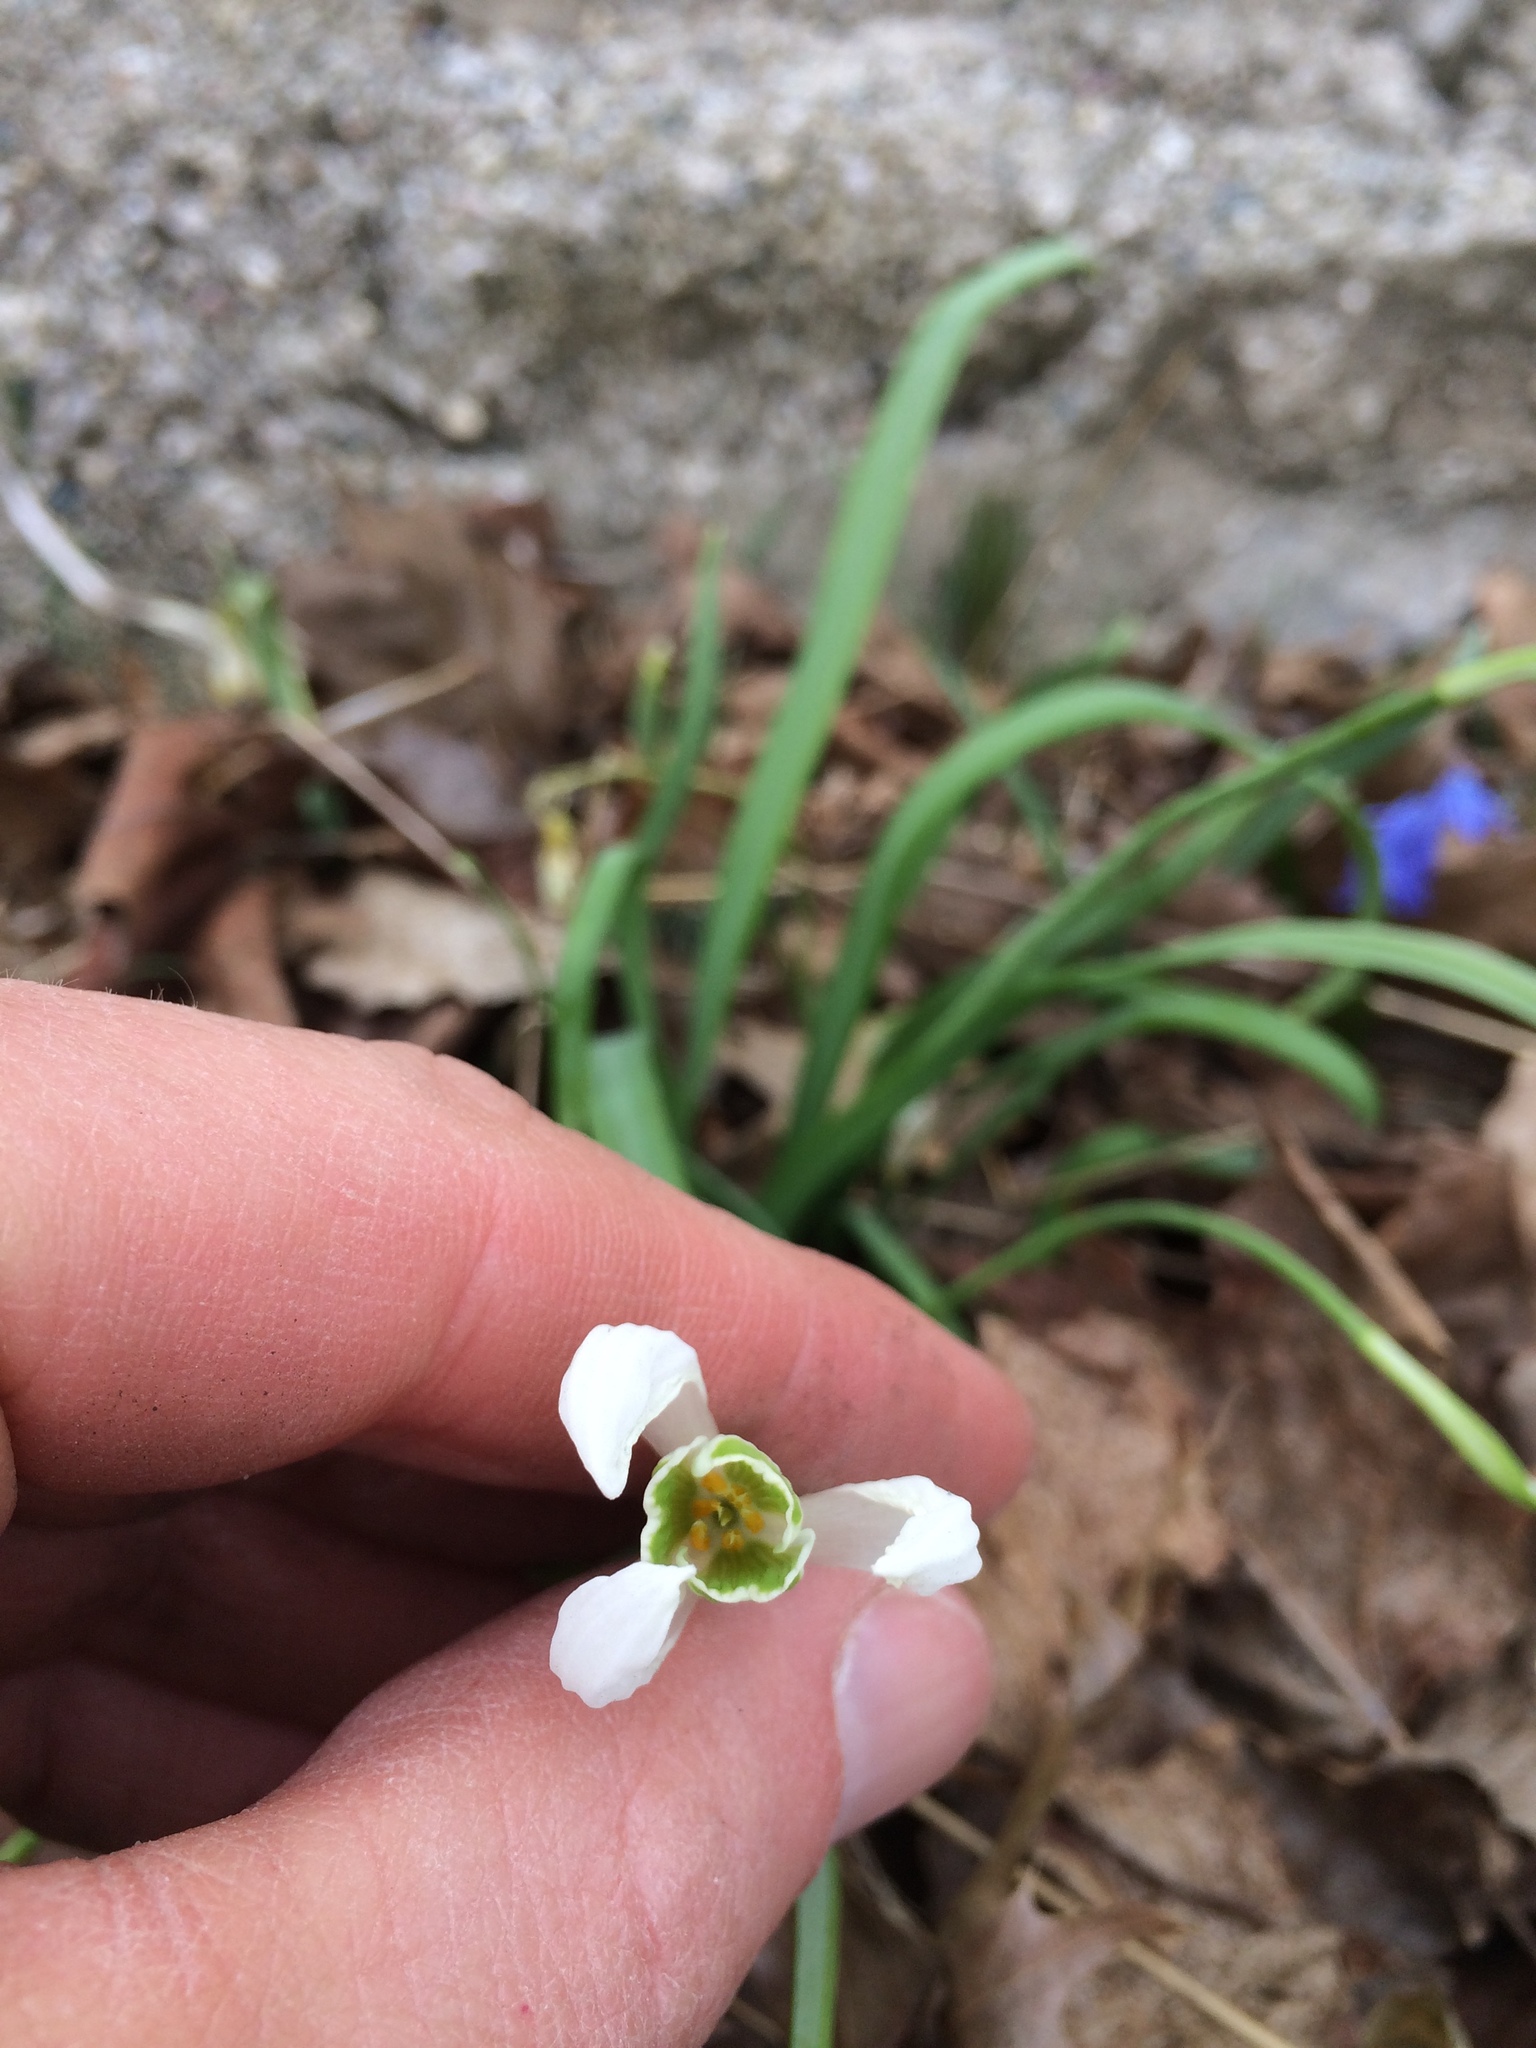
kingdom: Plantae
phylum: Tracheophyta
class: Liliopsida
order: Asparagales
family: Amaryllidaceae
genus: Galanthus
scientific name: Galanthus nivalis
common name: Snowdrop
